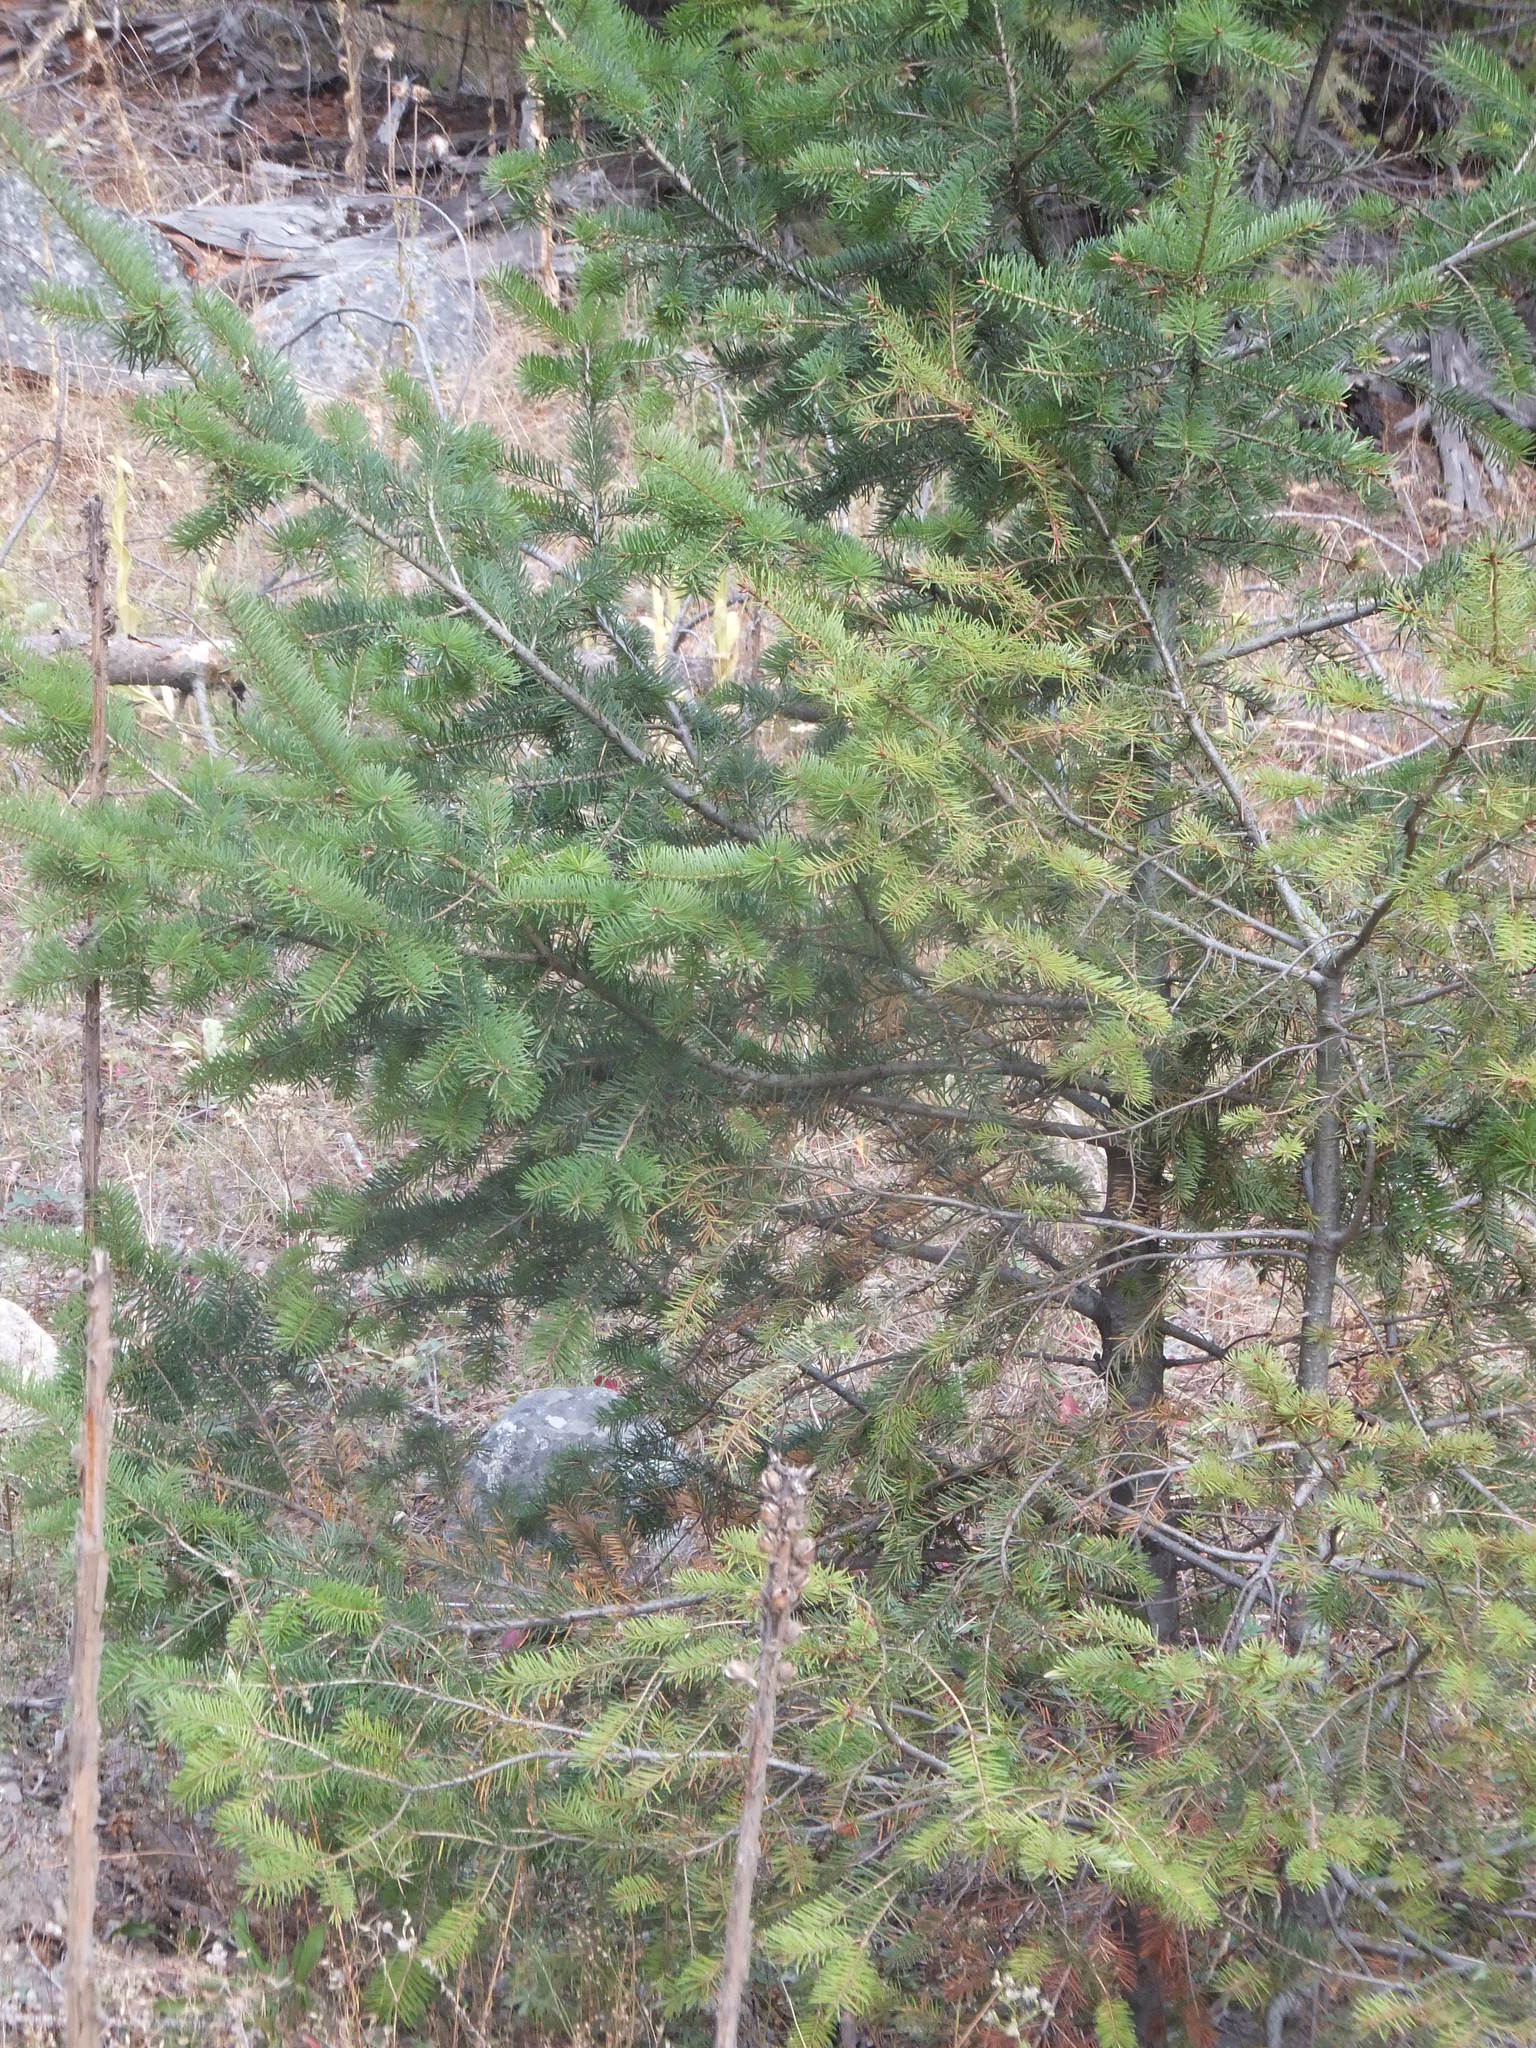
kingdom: Plantae
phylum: Tracheophyta
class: Pinopsida
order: Pinales
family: Pinaceae
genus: Pseudotsuga
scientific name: Pseudotsuga menziesii
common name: Douglas fir
